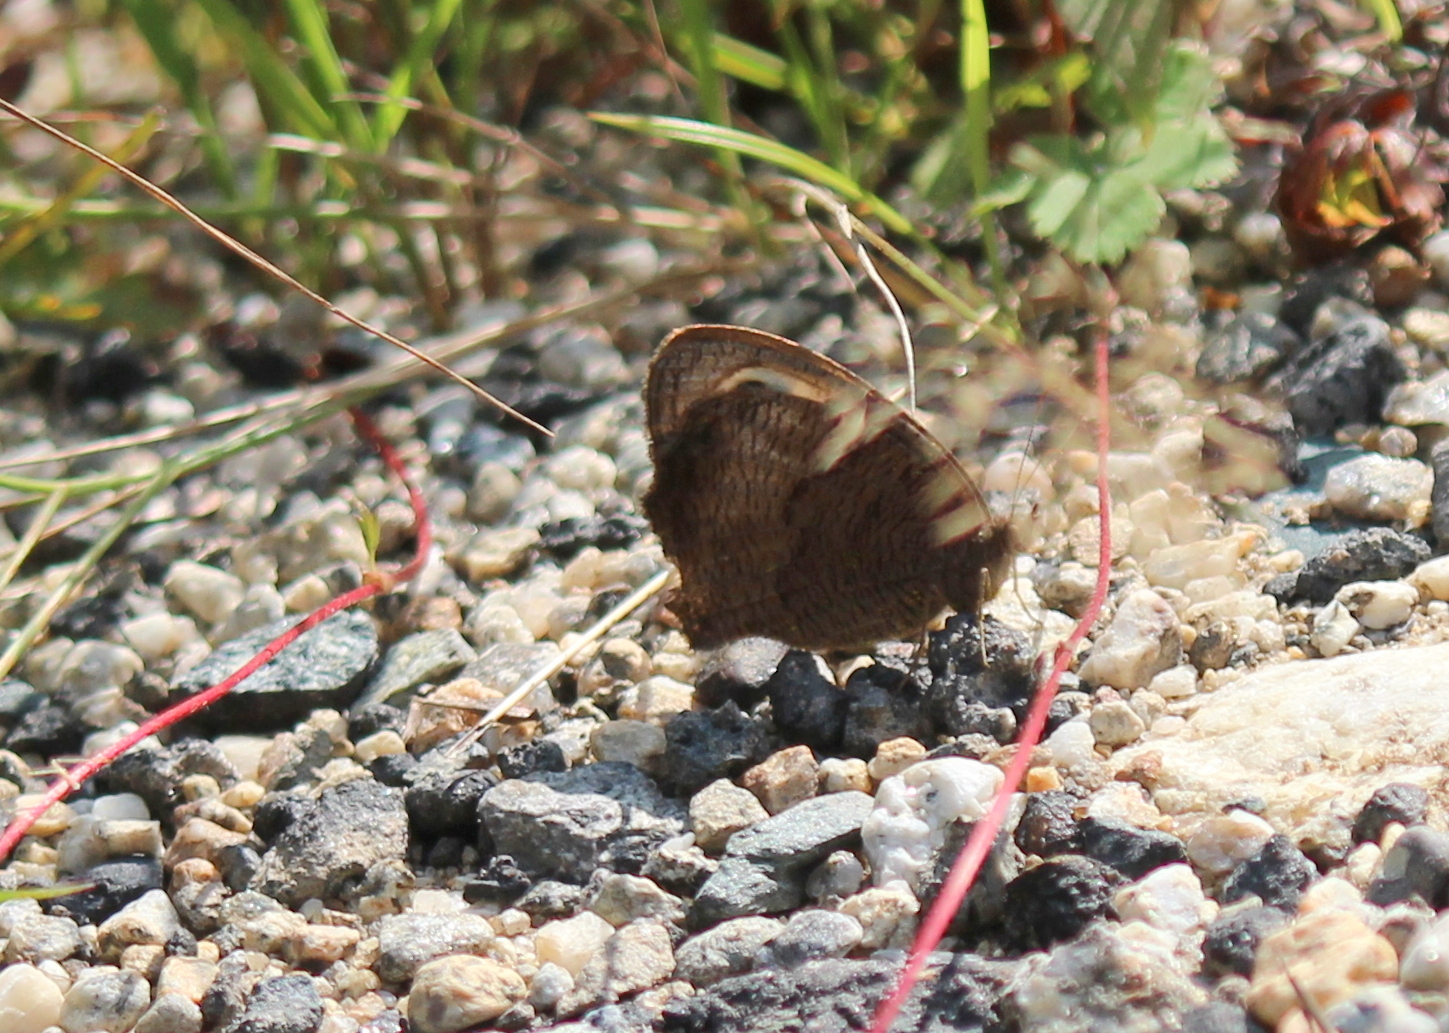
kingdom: Animalia
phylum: Arthropoda
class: Insecta
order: Lepidoptera
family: Nymphalidae
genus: Cercyonis
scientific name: Cercyonis pegala
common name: Common wood-nymph
